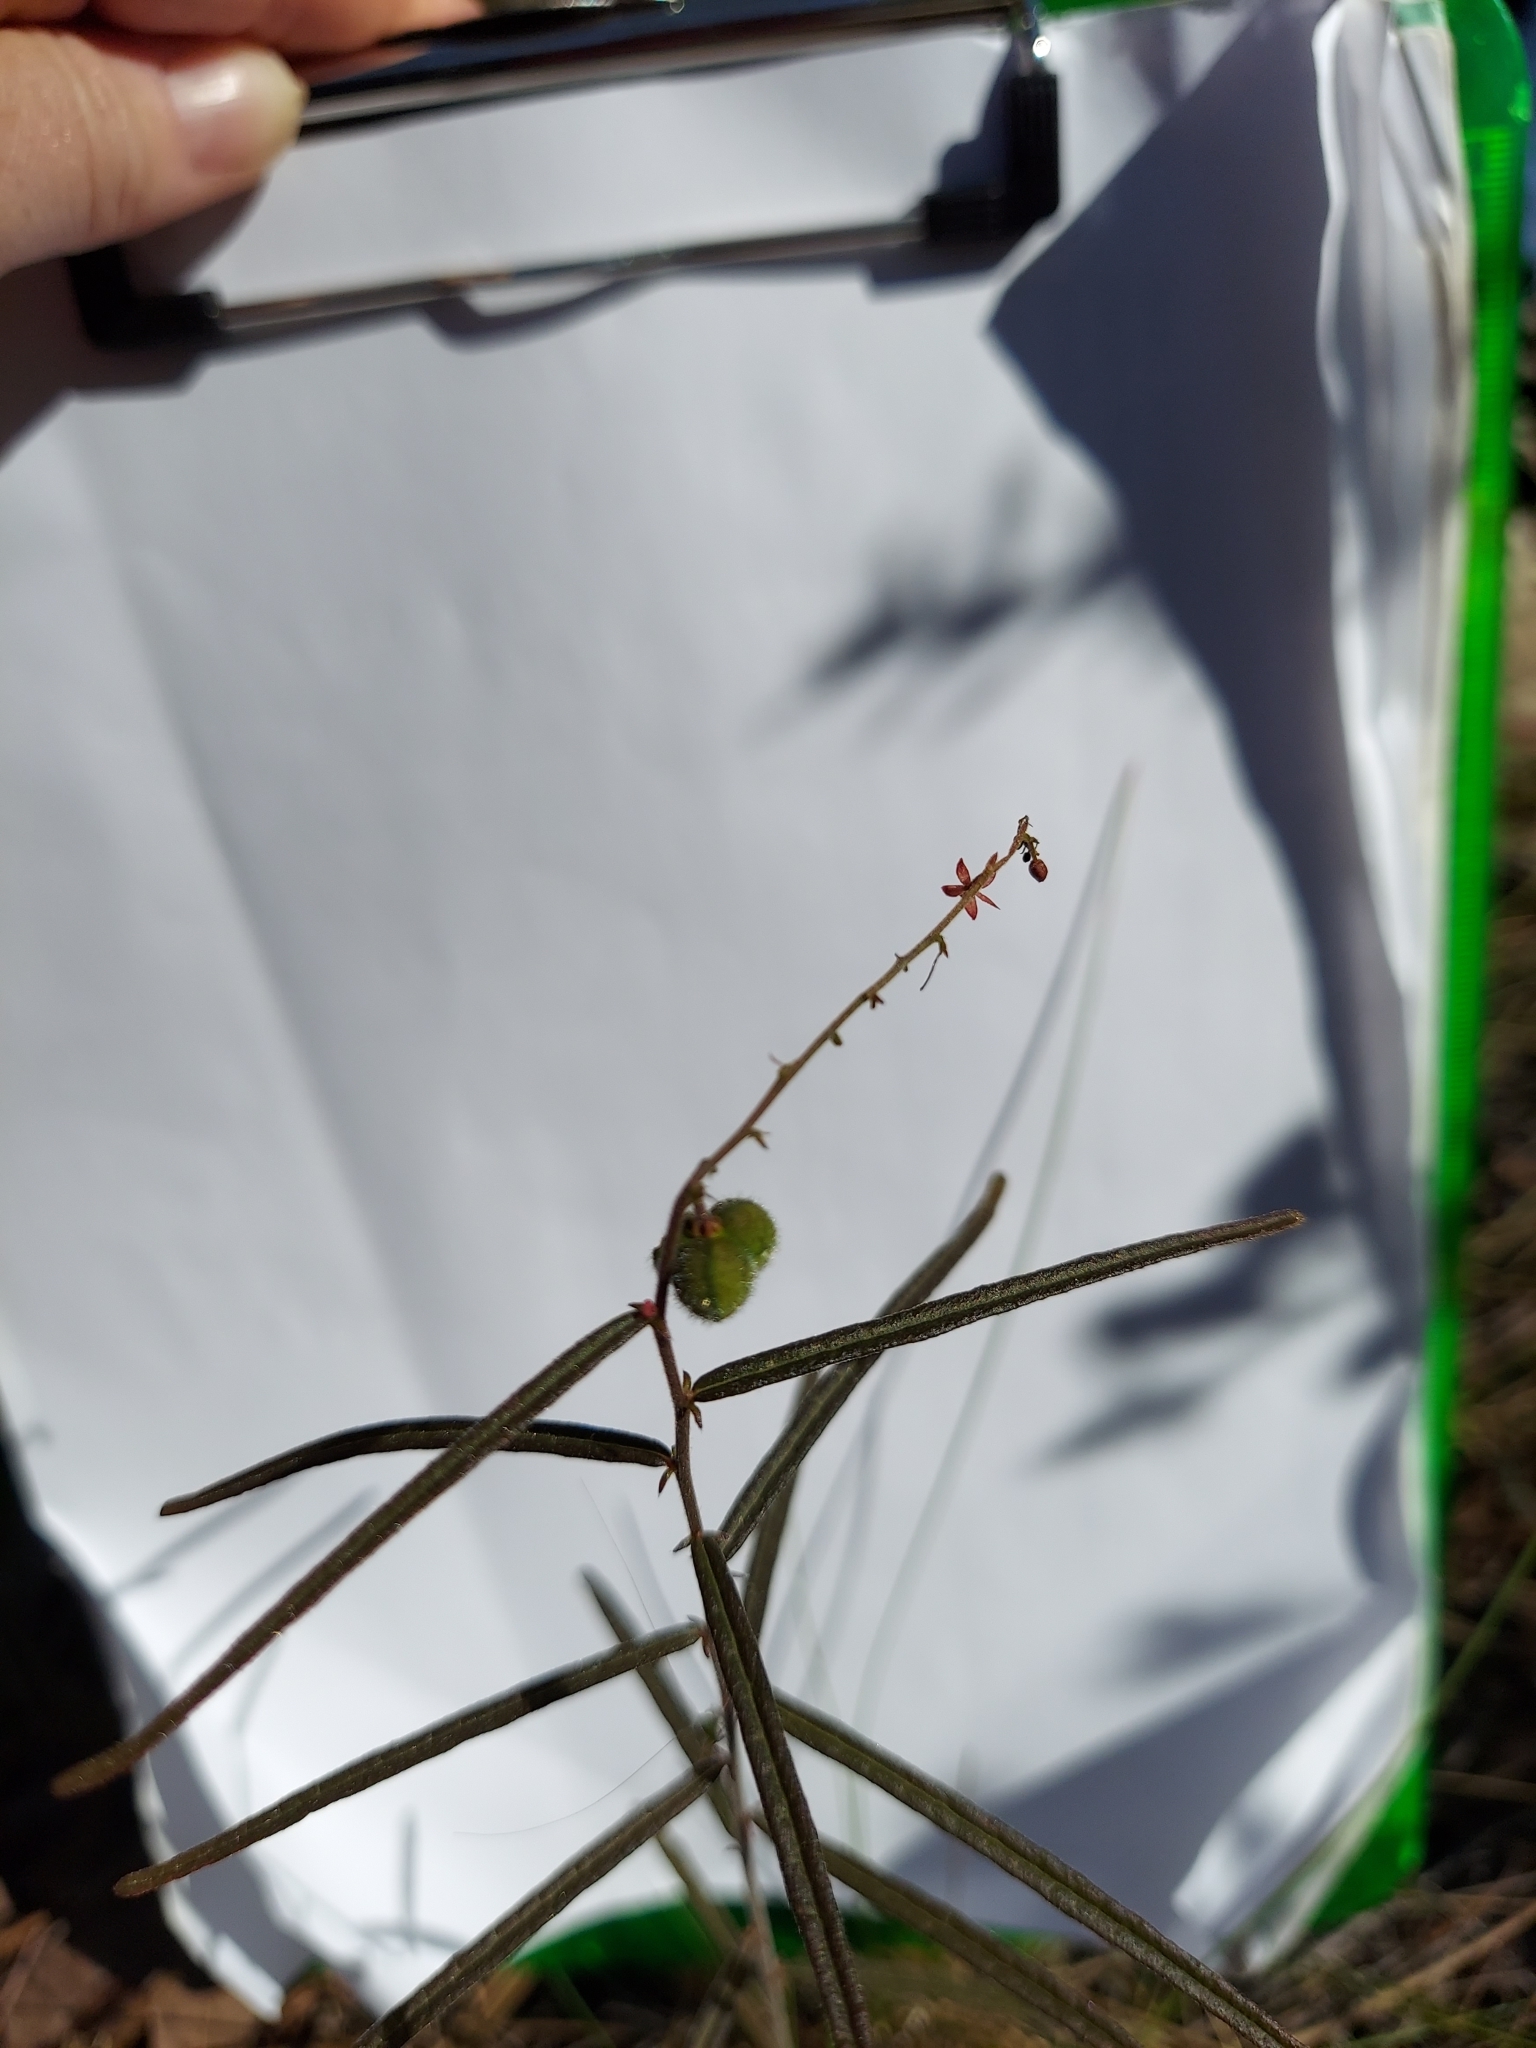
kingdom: Plantae
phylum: Tracheophyta
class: Magnoliopsida
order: Malpighiales
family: Euphorbiaceae
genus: Tragia
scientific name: Tragia urens
